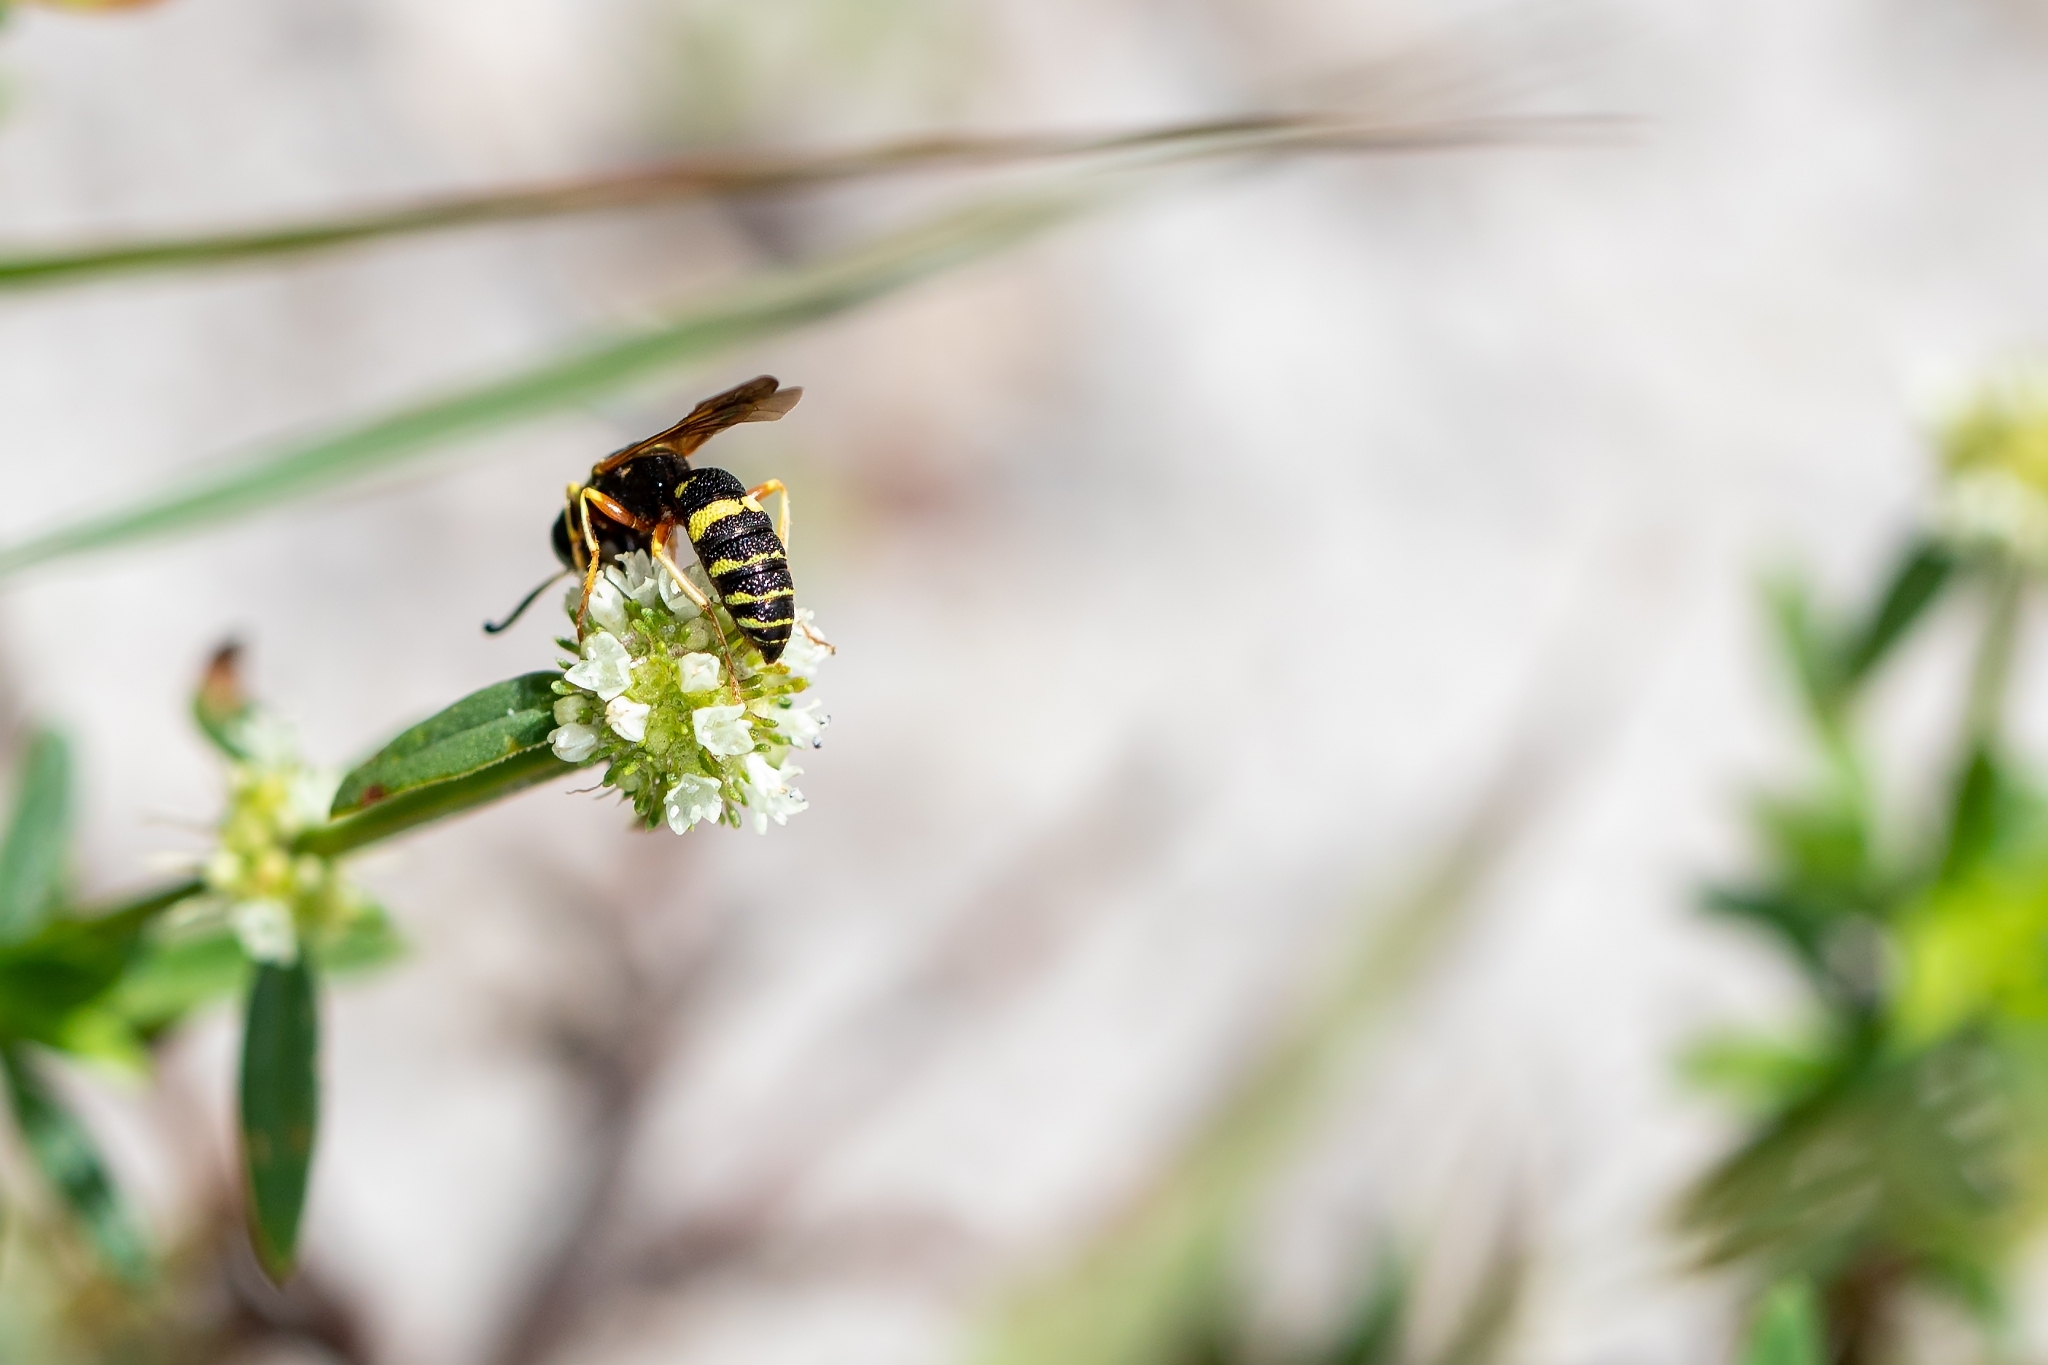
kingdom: Animalia
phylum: Arthropoda
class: Insecta
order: Hymenoptera
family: Crabronidae
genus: Philanthus
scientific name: Philanthus ventilabris
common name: Bee-killer wasp
